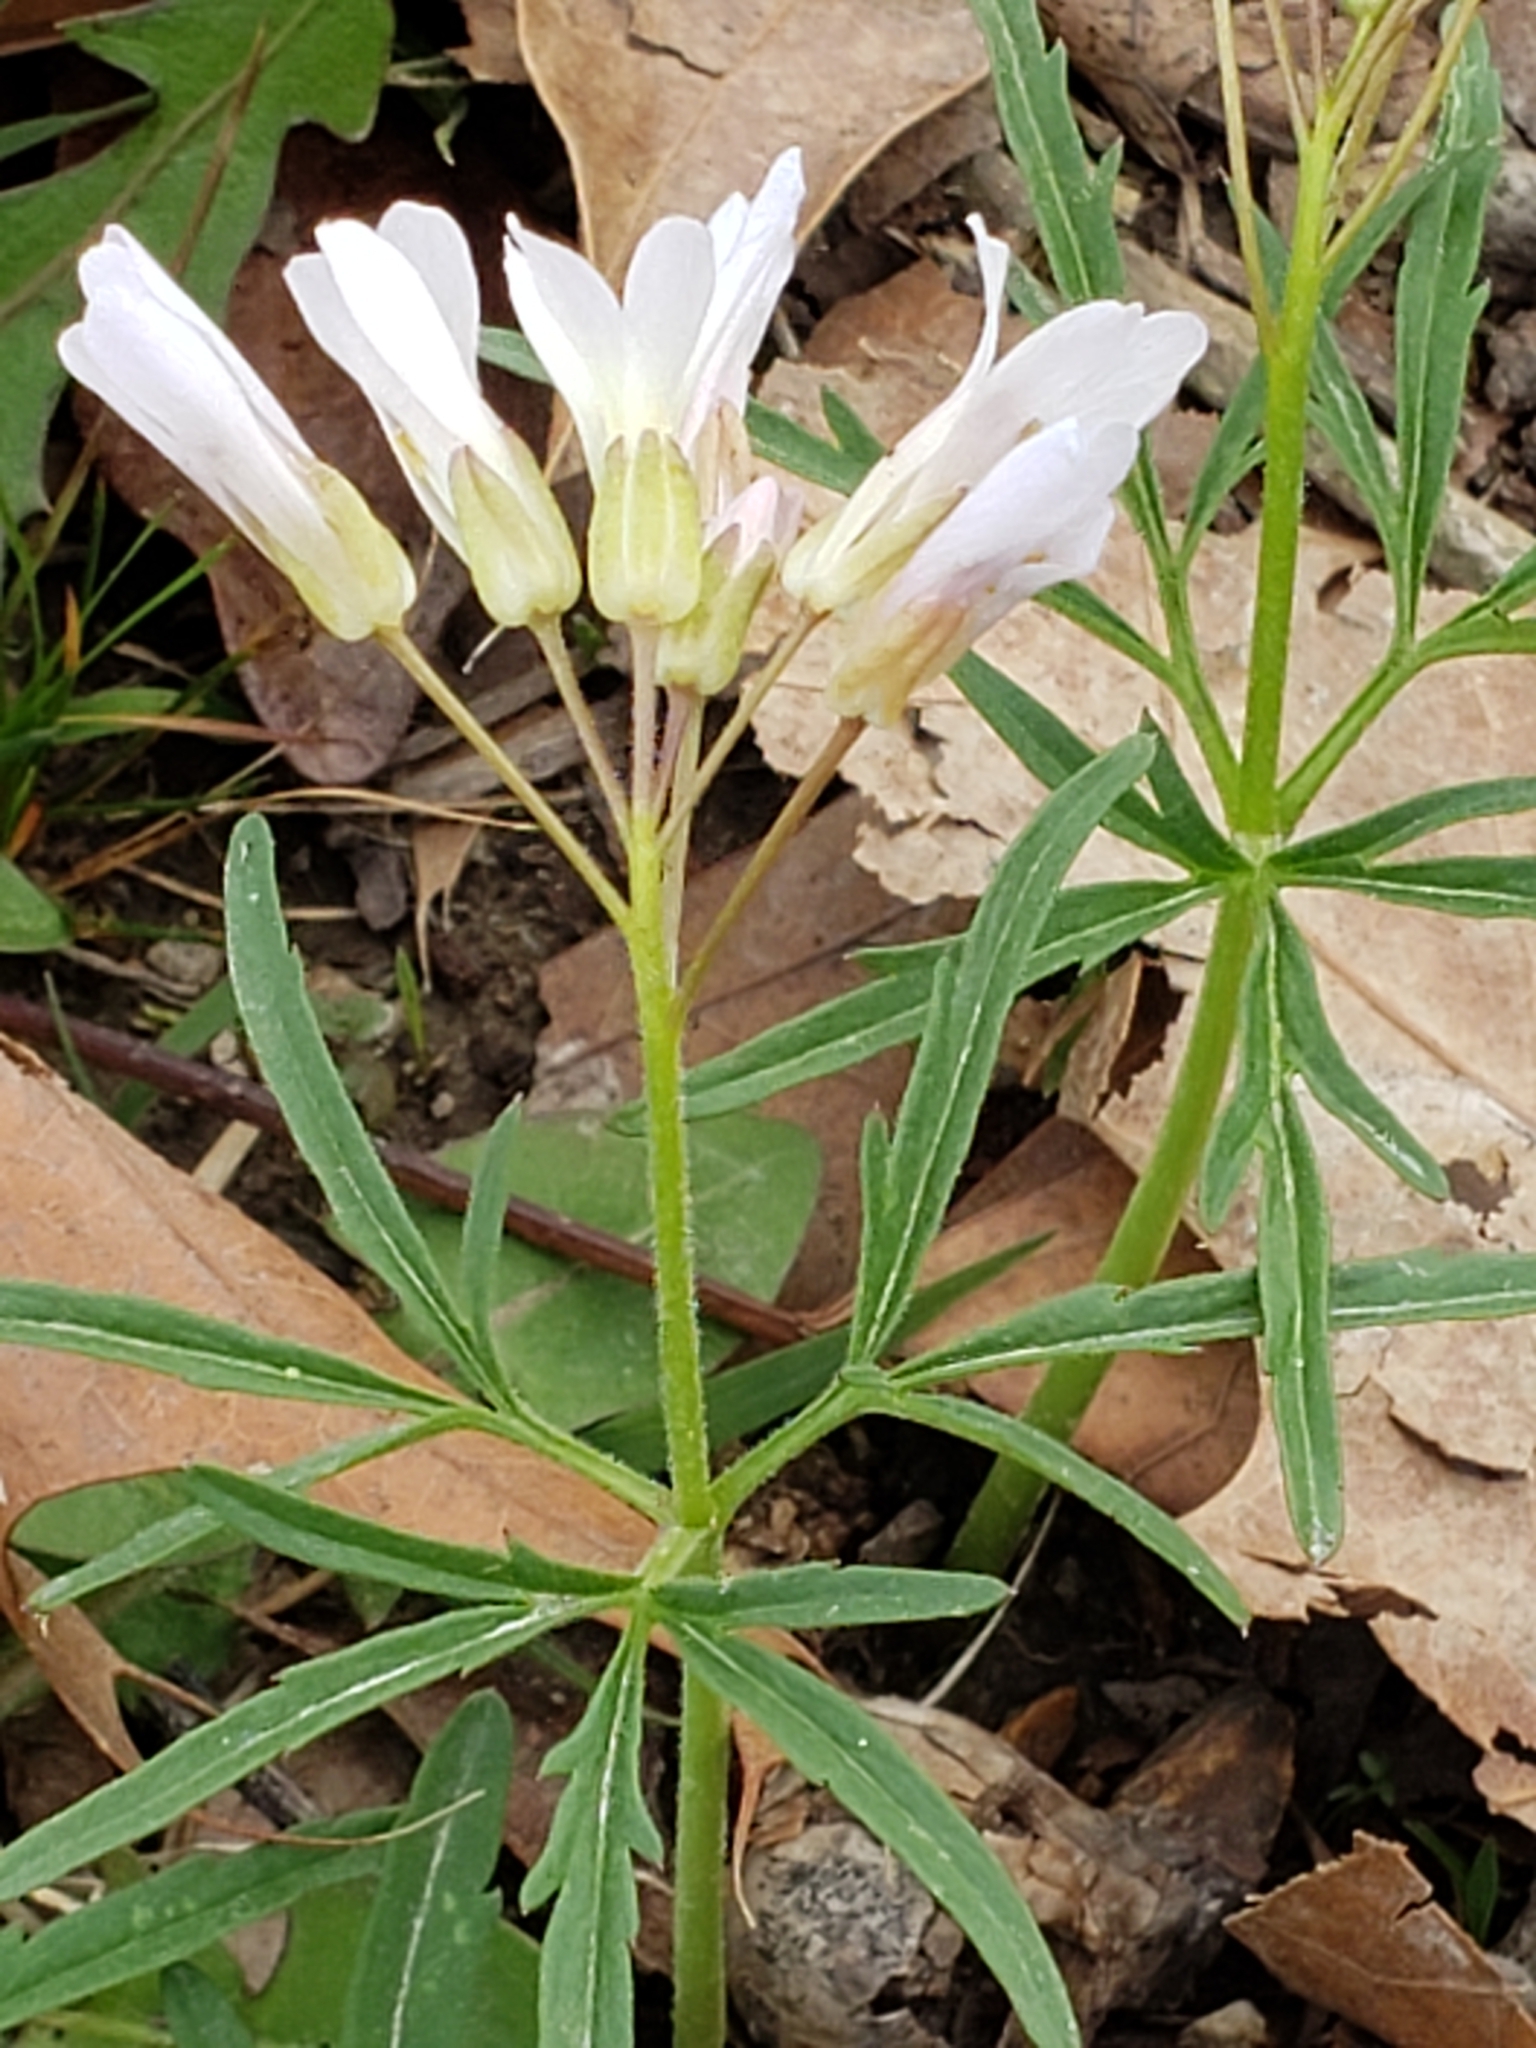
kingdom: Plantae
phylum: Tracheophyta
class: Magnoliopsida
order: Brassicales
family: Brassicaceae
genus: Cardamine
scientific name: Cardamine concatenata
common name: Cut-leaf toothcup
